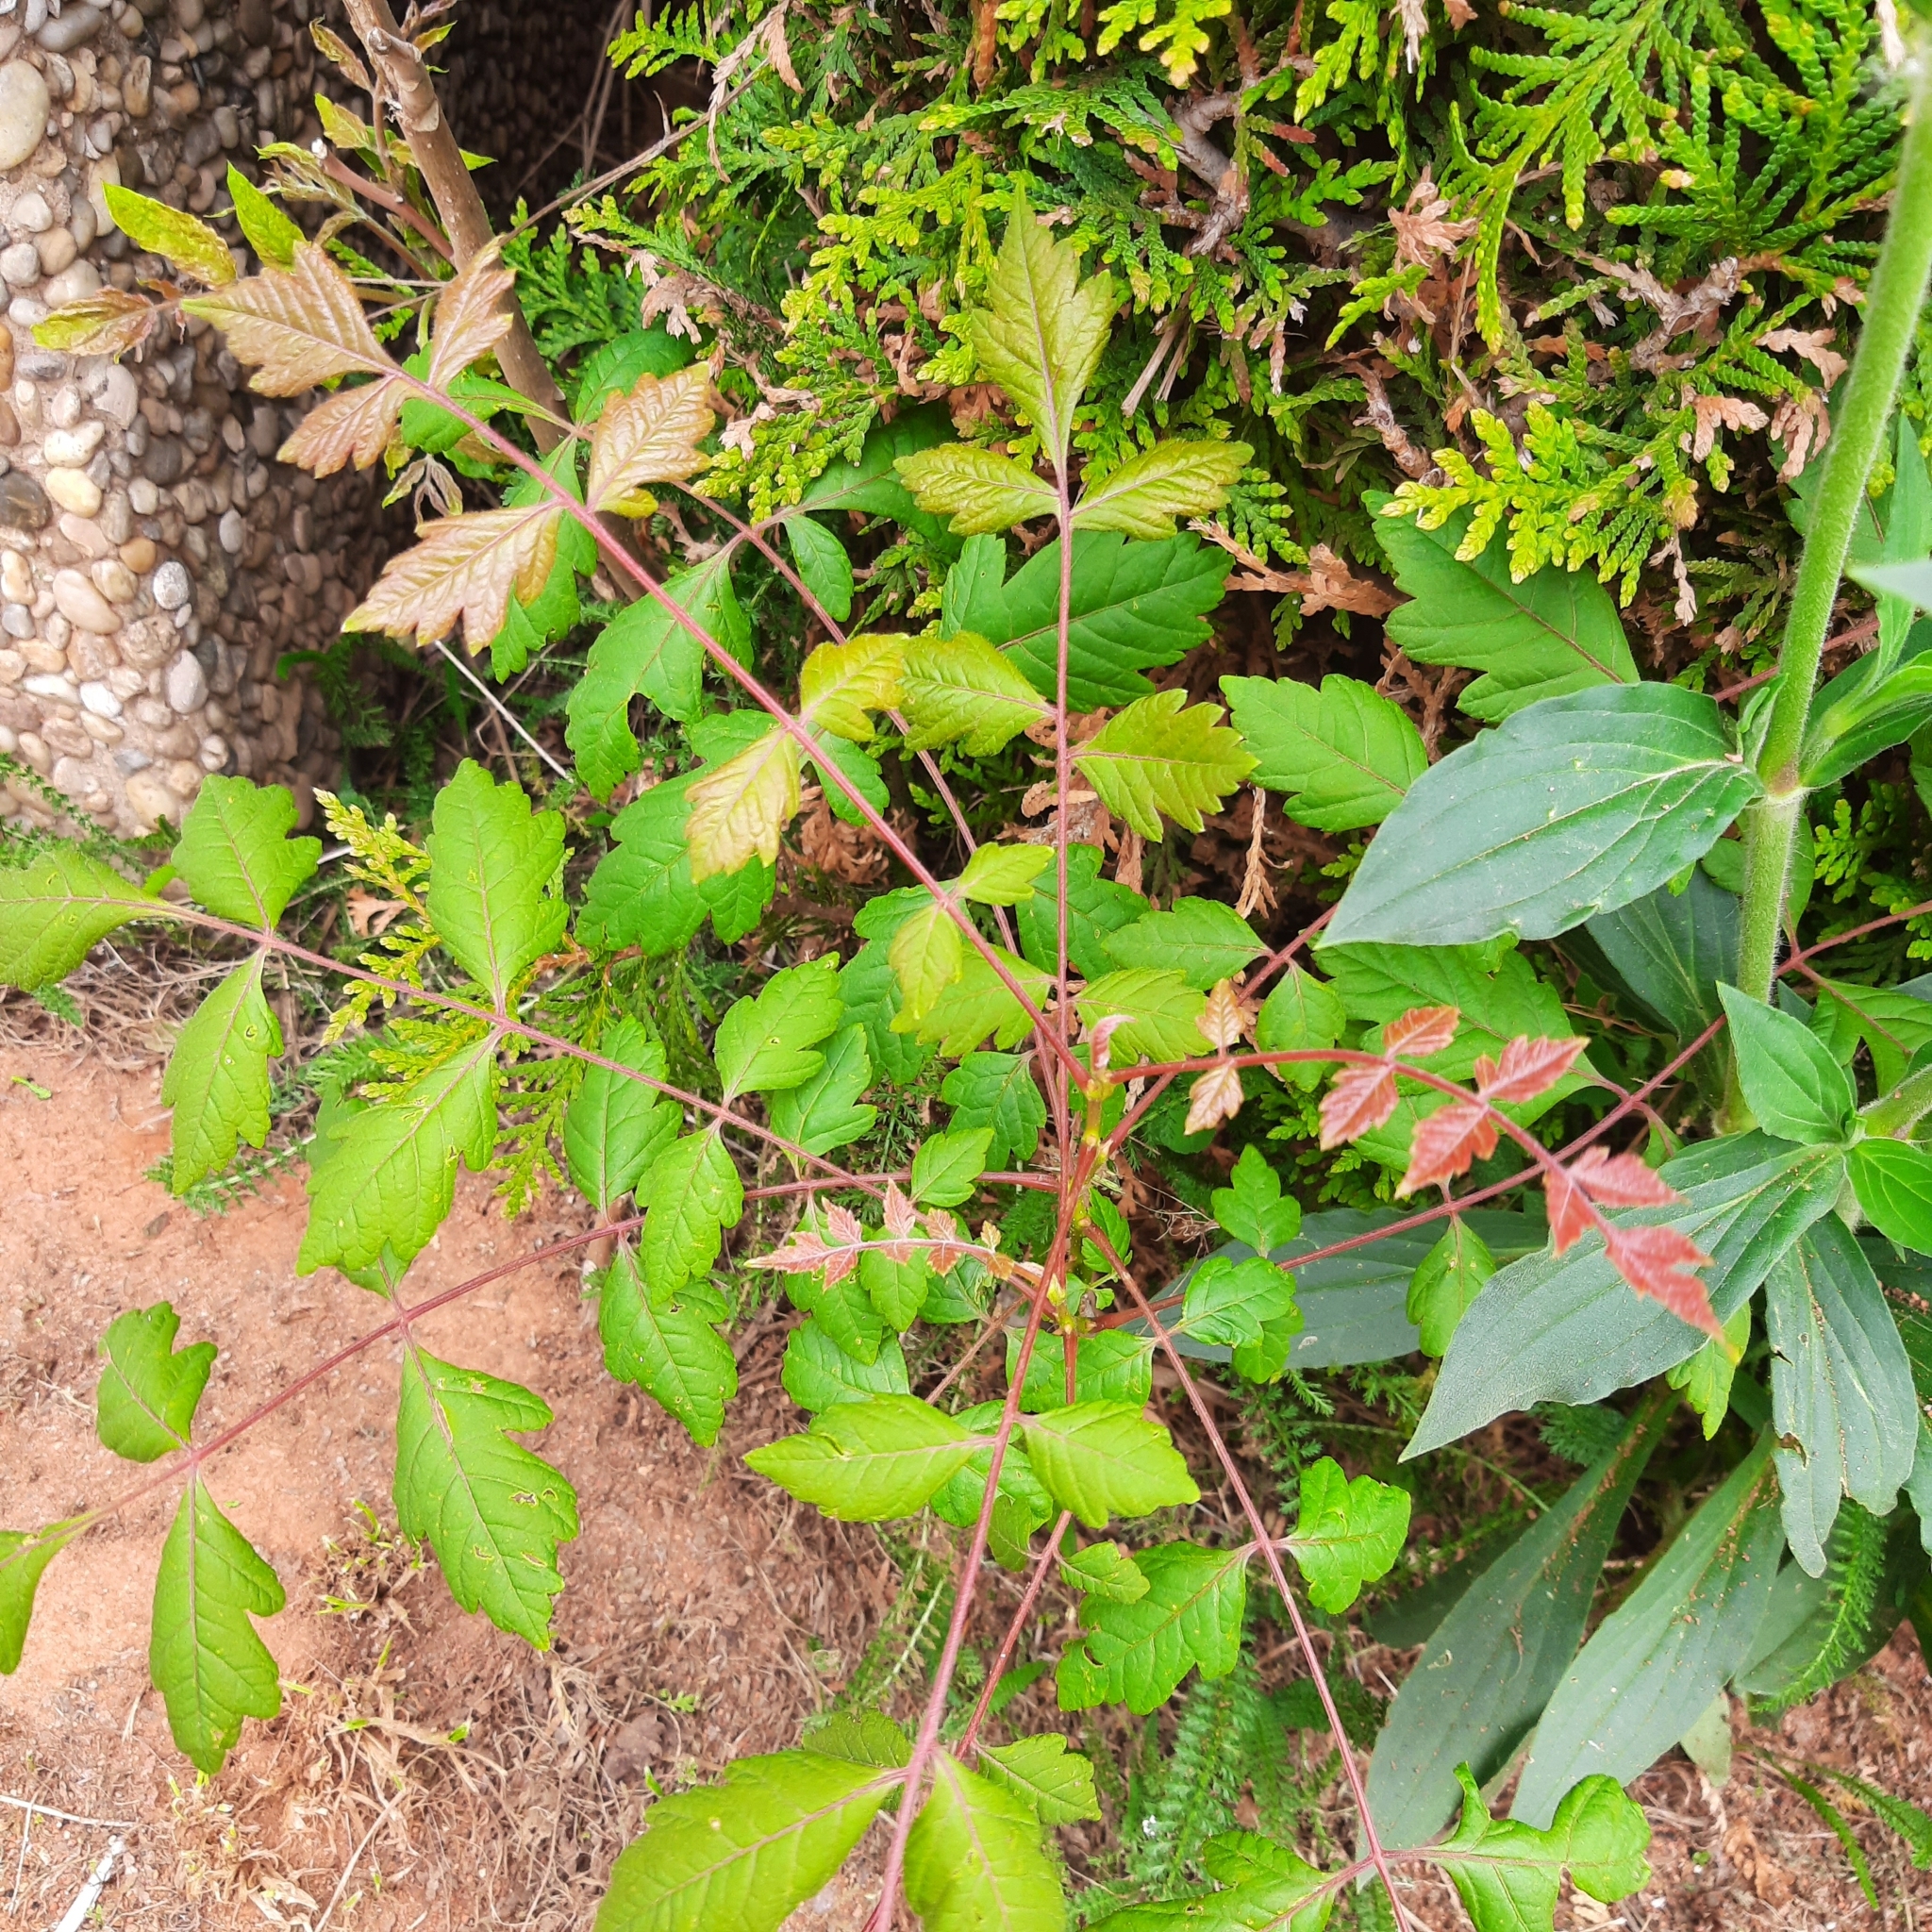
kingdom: Plantae
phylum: Tracheophyta
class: Magnoliopsida
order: Sapindales
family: Sapindaceae
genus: Koelreuteria
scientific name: Koelreuteria paniculata
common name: Pride-of-india
